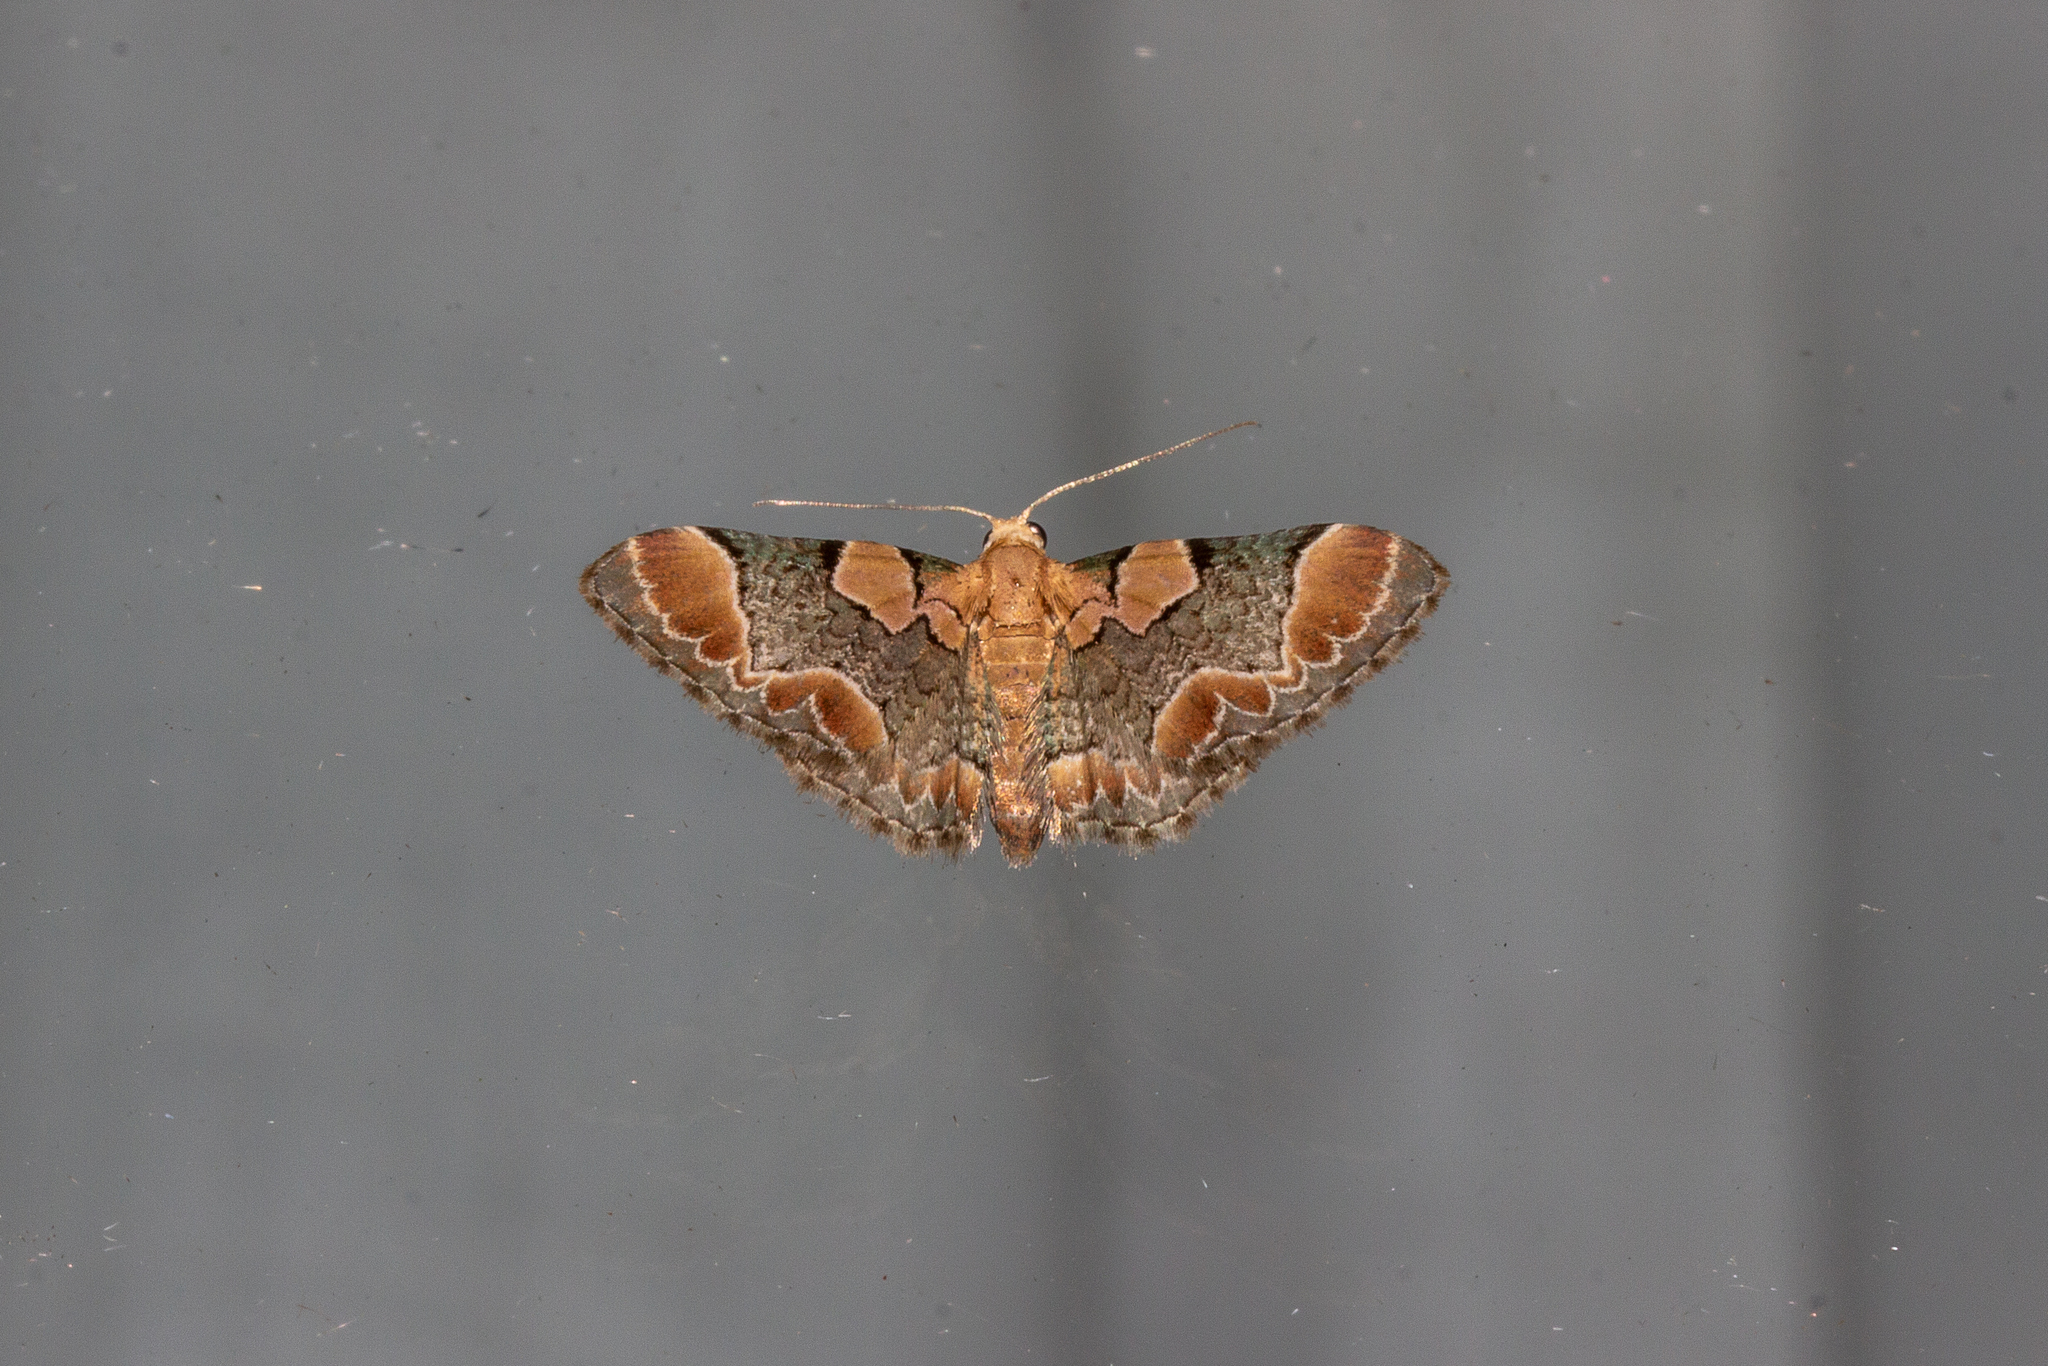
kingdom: Animalia
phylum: Arthropoda
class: Insecta
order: Lepidoptera
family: Geometridae
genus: Chloroclystis
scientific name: Chloroclystis
